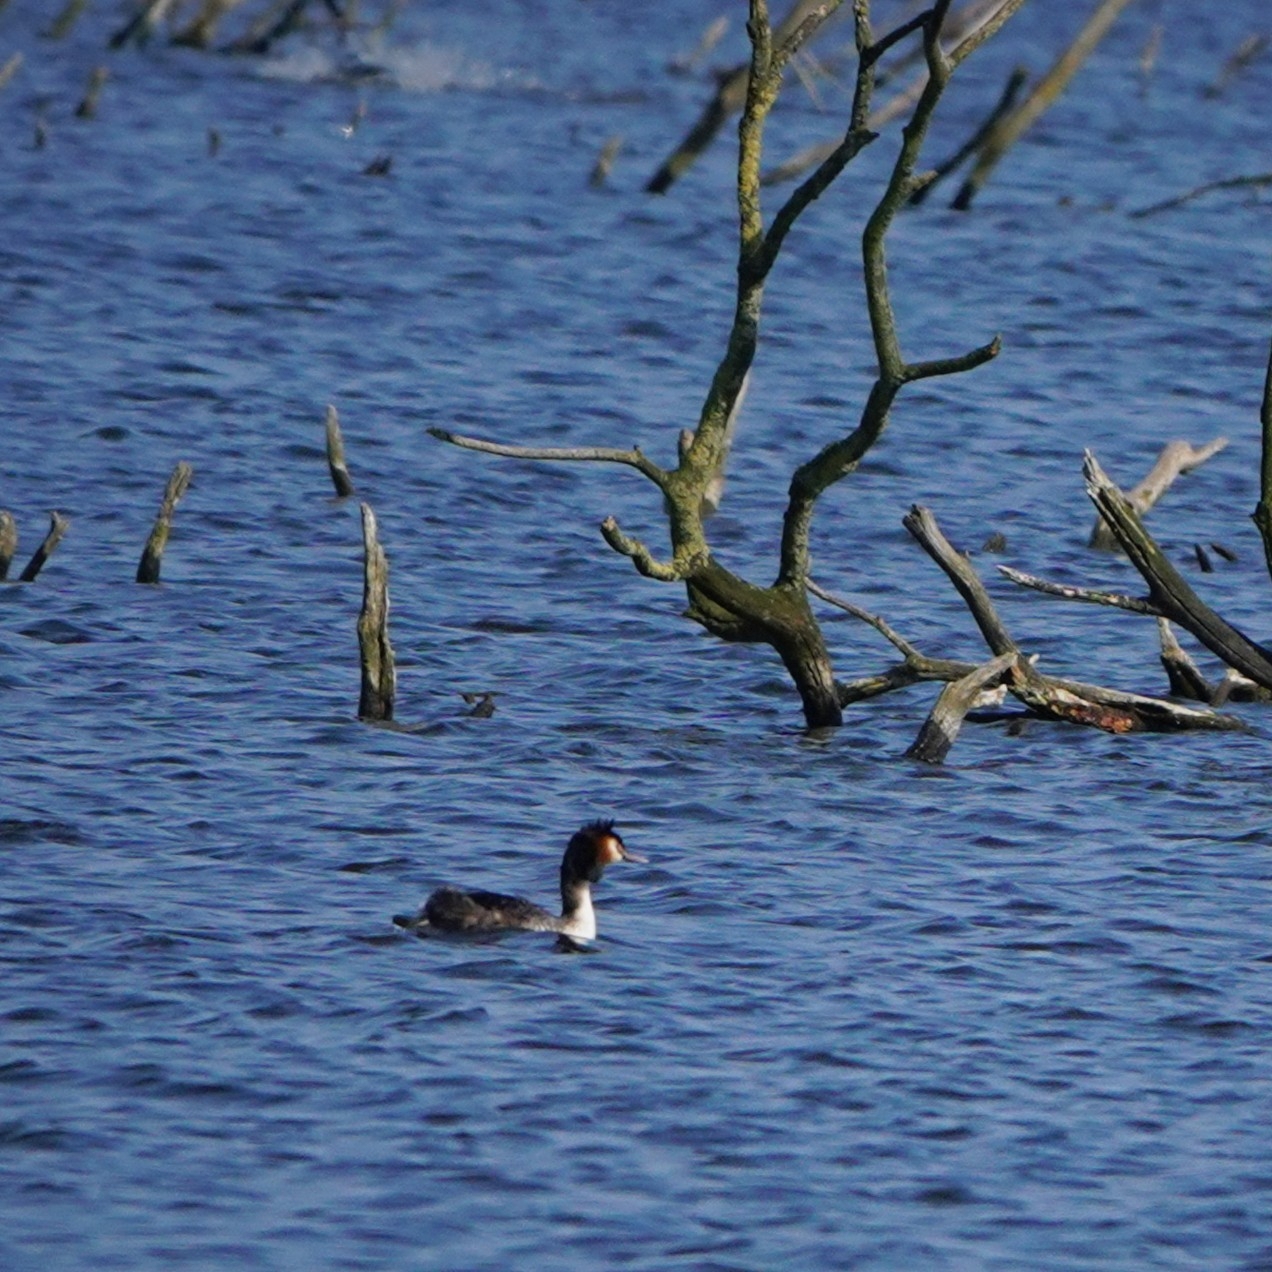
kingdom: Animalia
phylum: Chordata
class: Aves
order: Podicipediformes
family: Podicipedidae
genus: Podiceps
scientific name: Podiceps cristatus
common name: Great crested grebe
